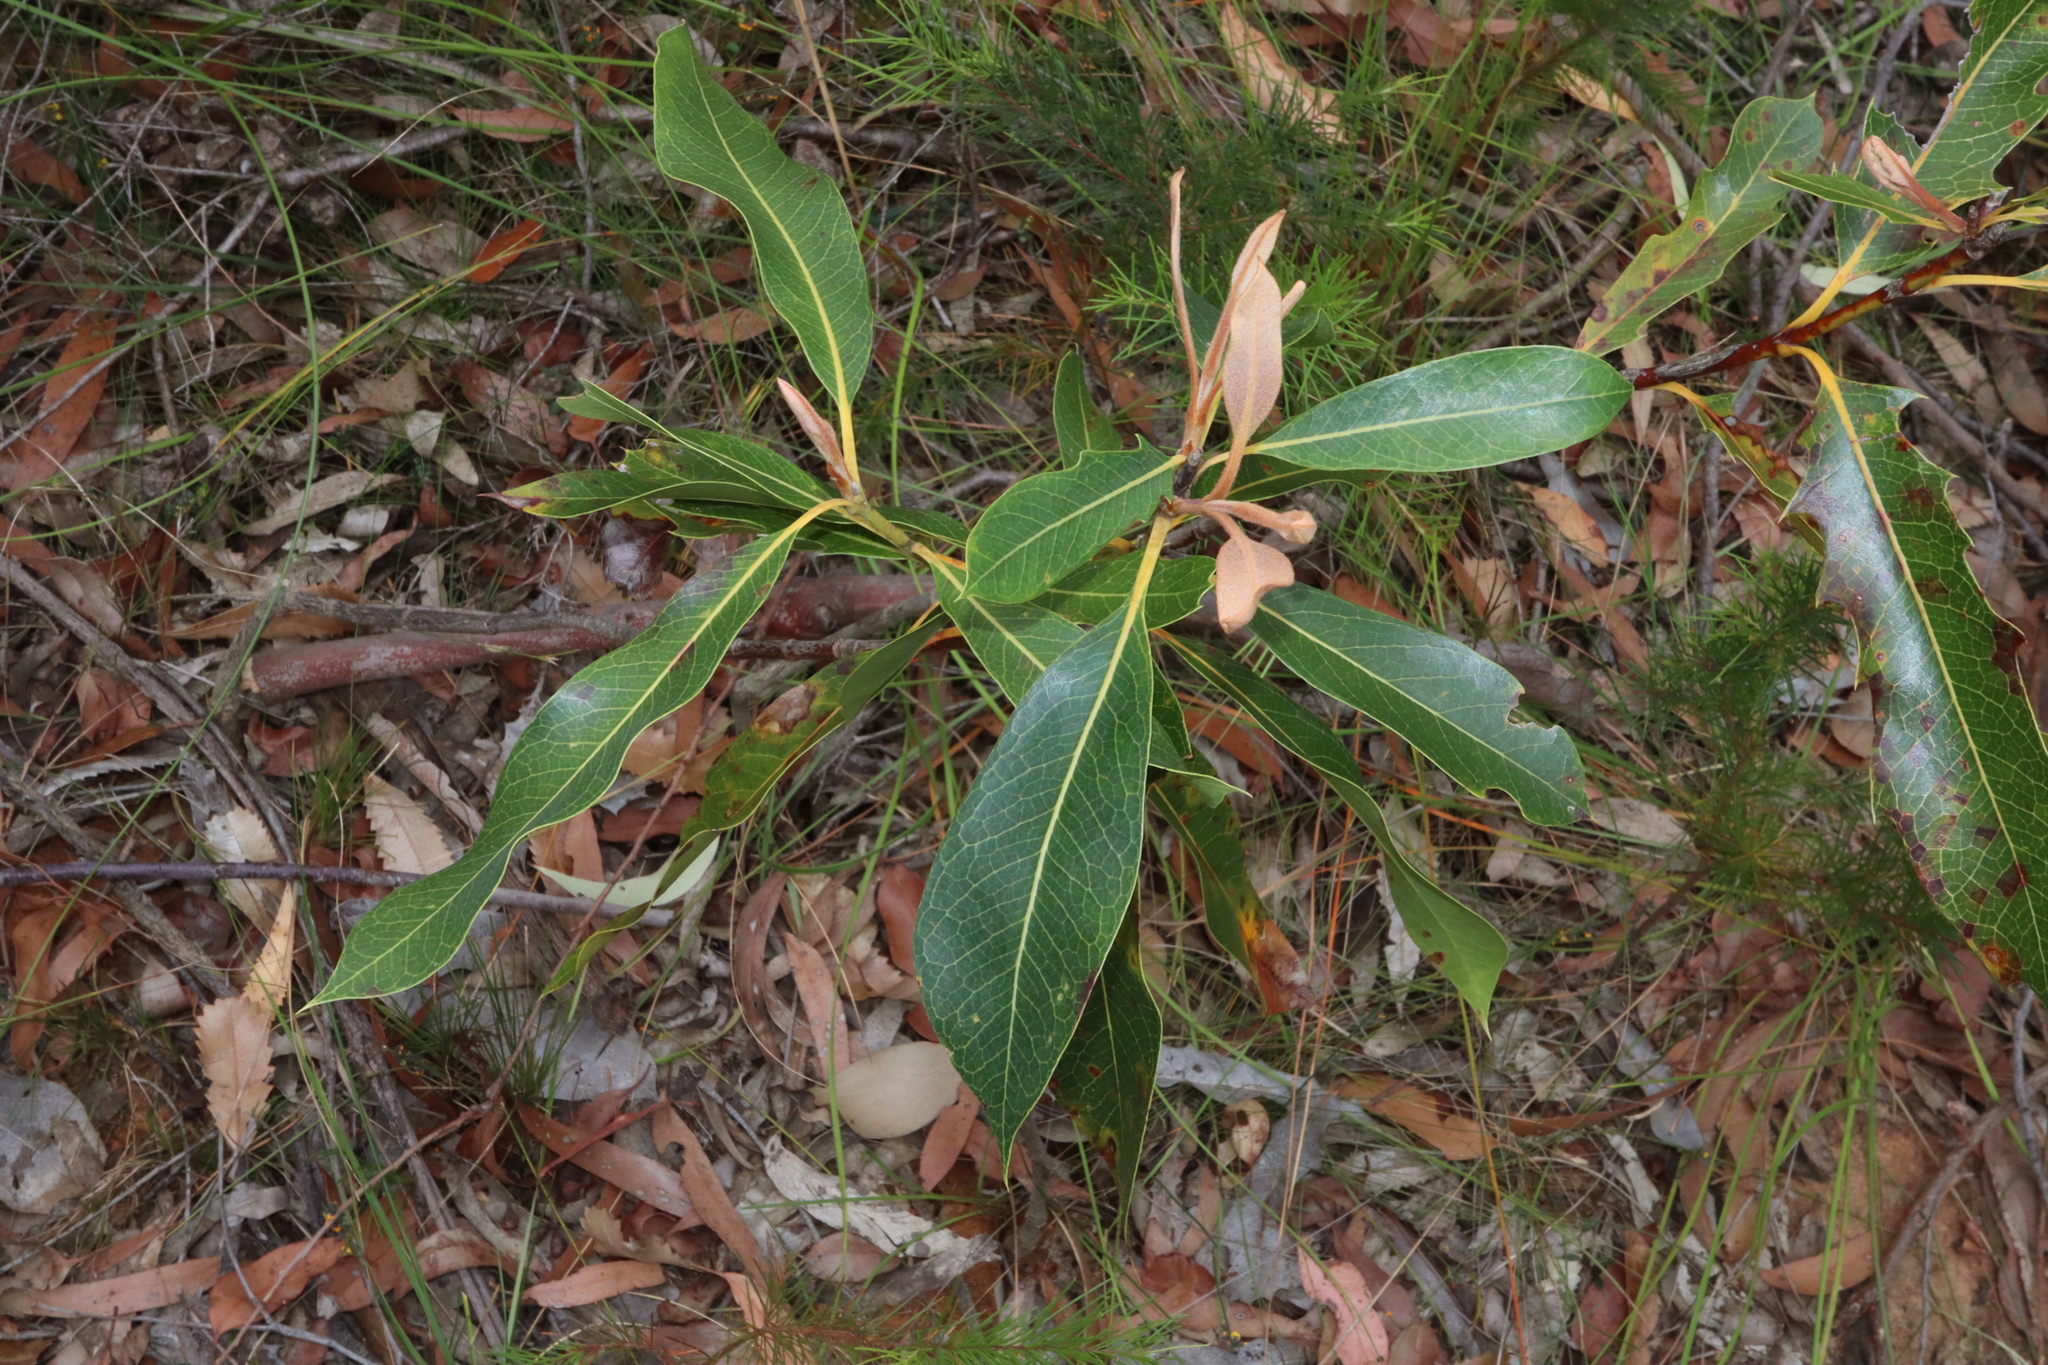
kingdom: Plantae
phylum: Tracheophyta
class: Magnoliopsida
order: Proteales
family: Proteaceae
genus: Xylomelum
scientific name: Xylomelum pyriforme
